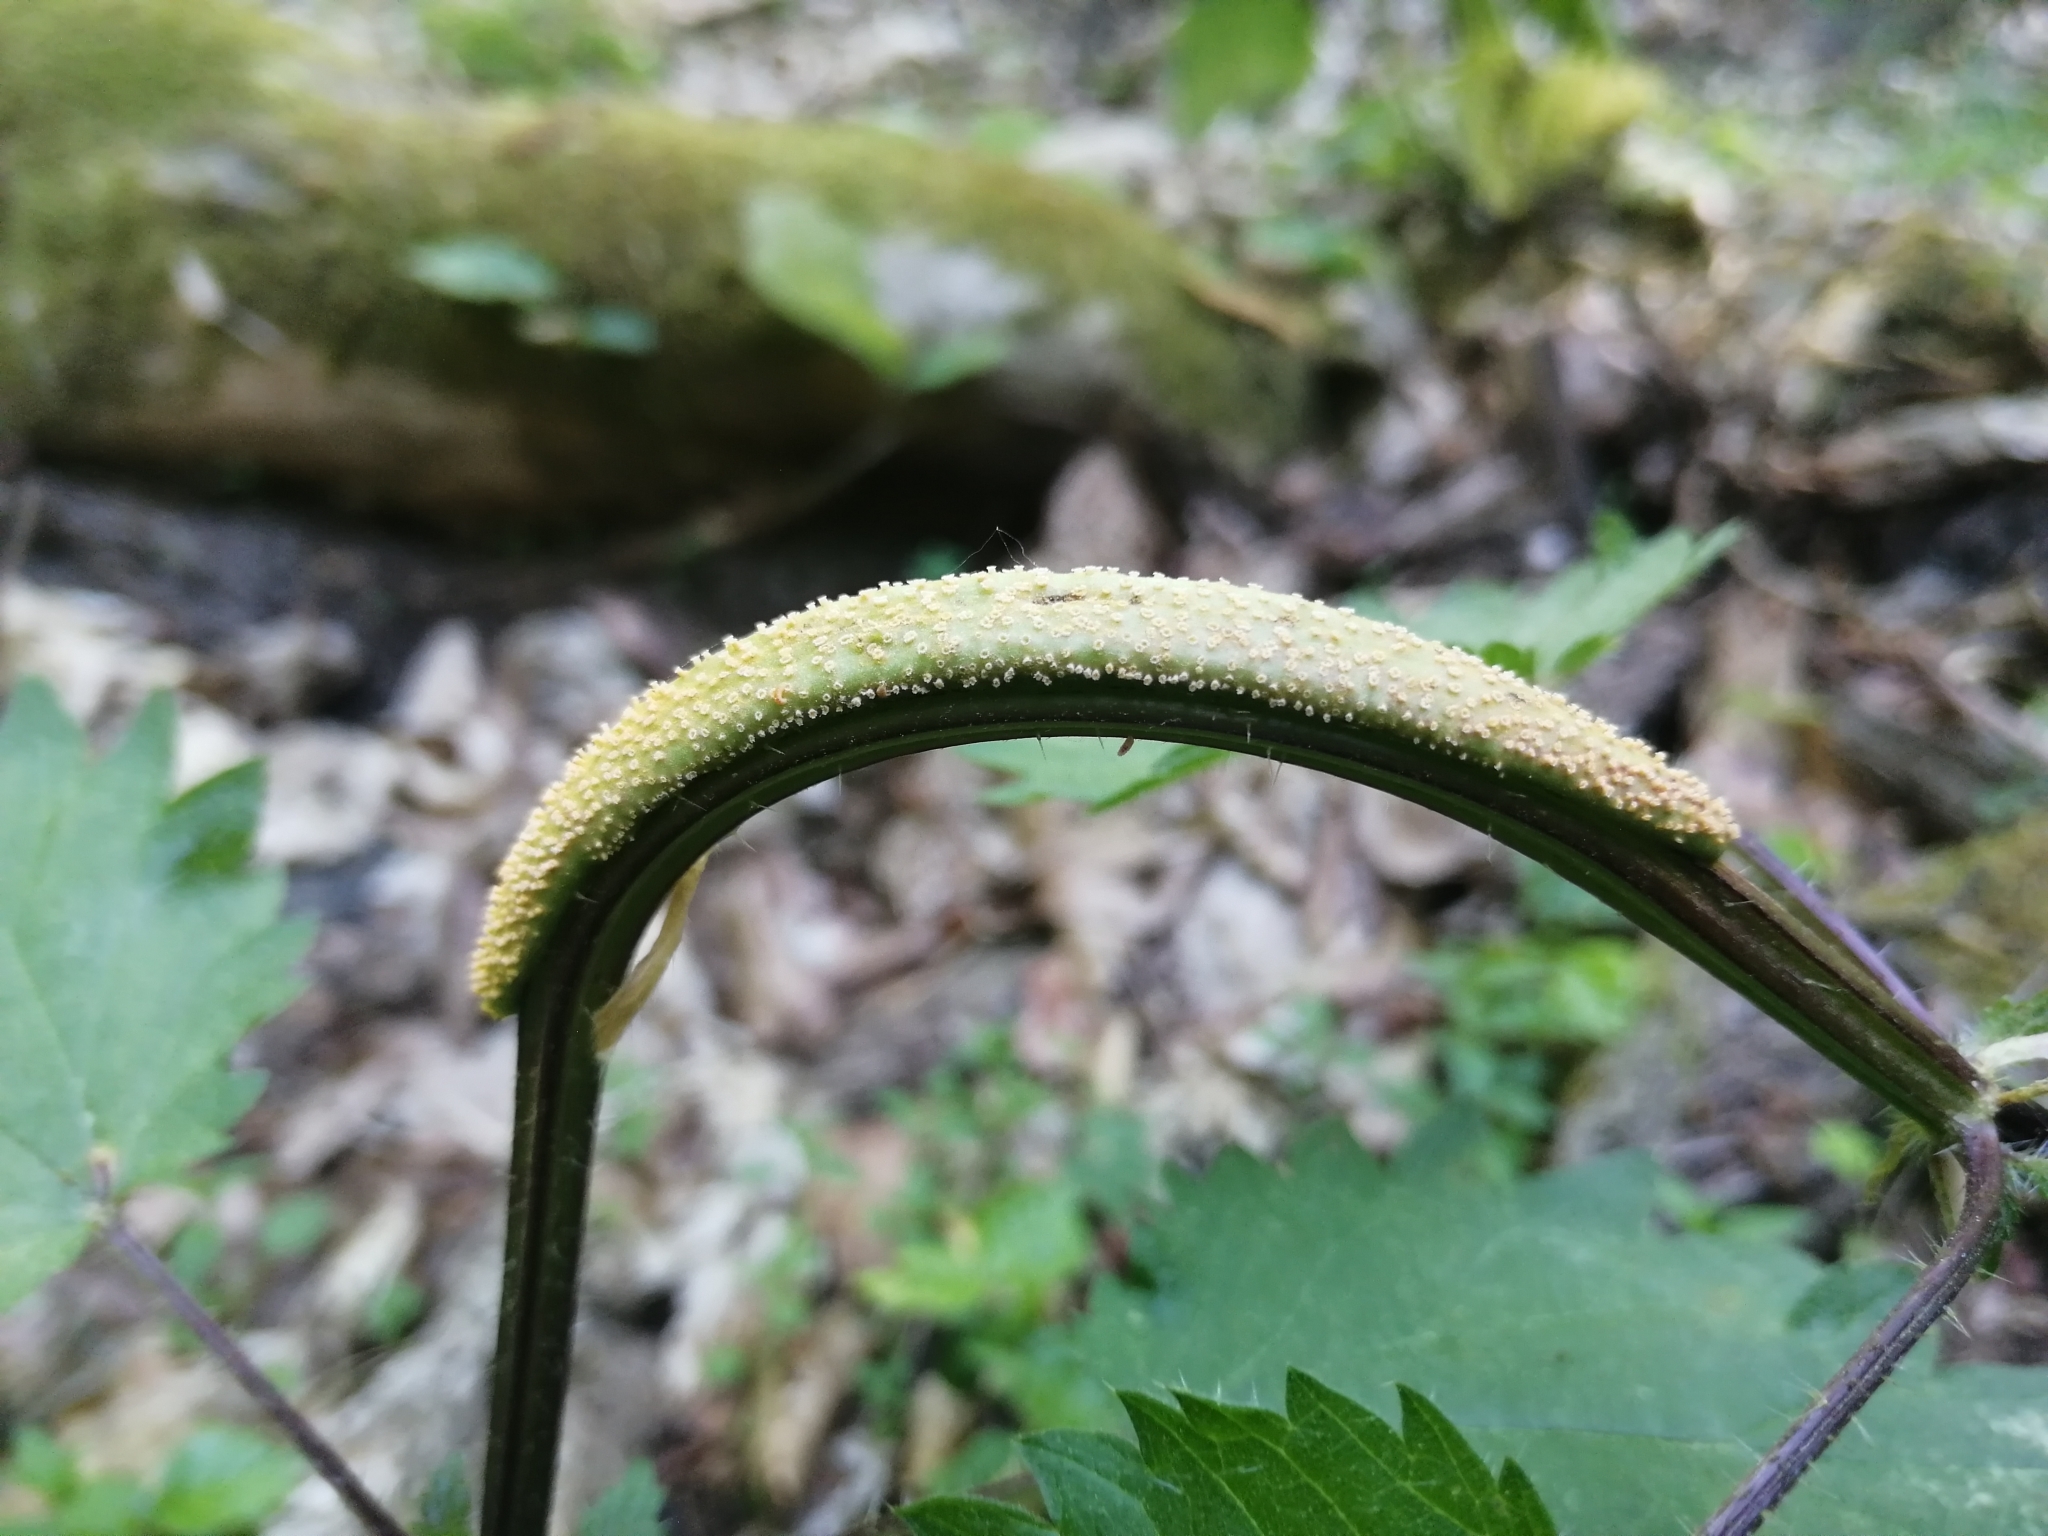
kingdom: Fungi
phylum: Basidiomycota
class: Pucciniomycetes
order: Pucciniales
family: Pucciniaceae
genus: Puccinia
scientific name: Puccinia urticata
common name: Nettle clustercup rust fungus
